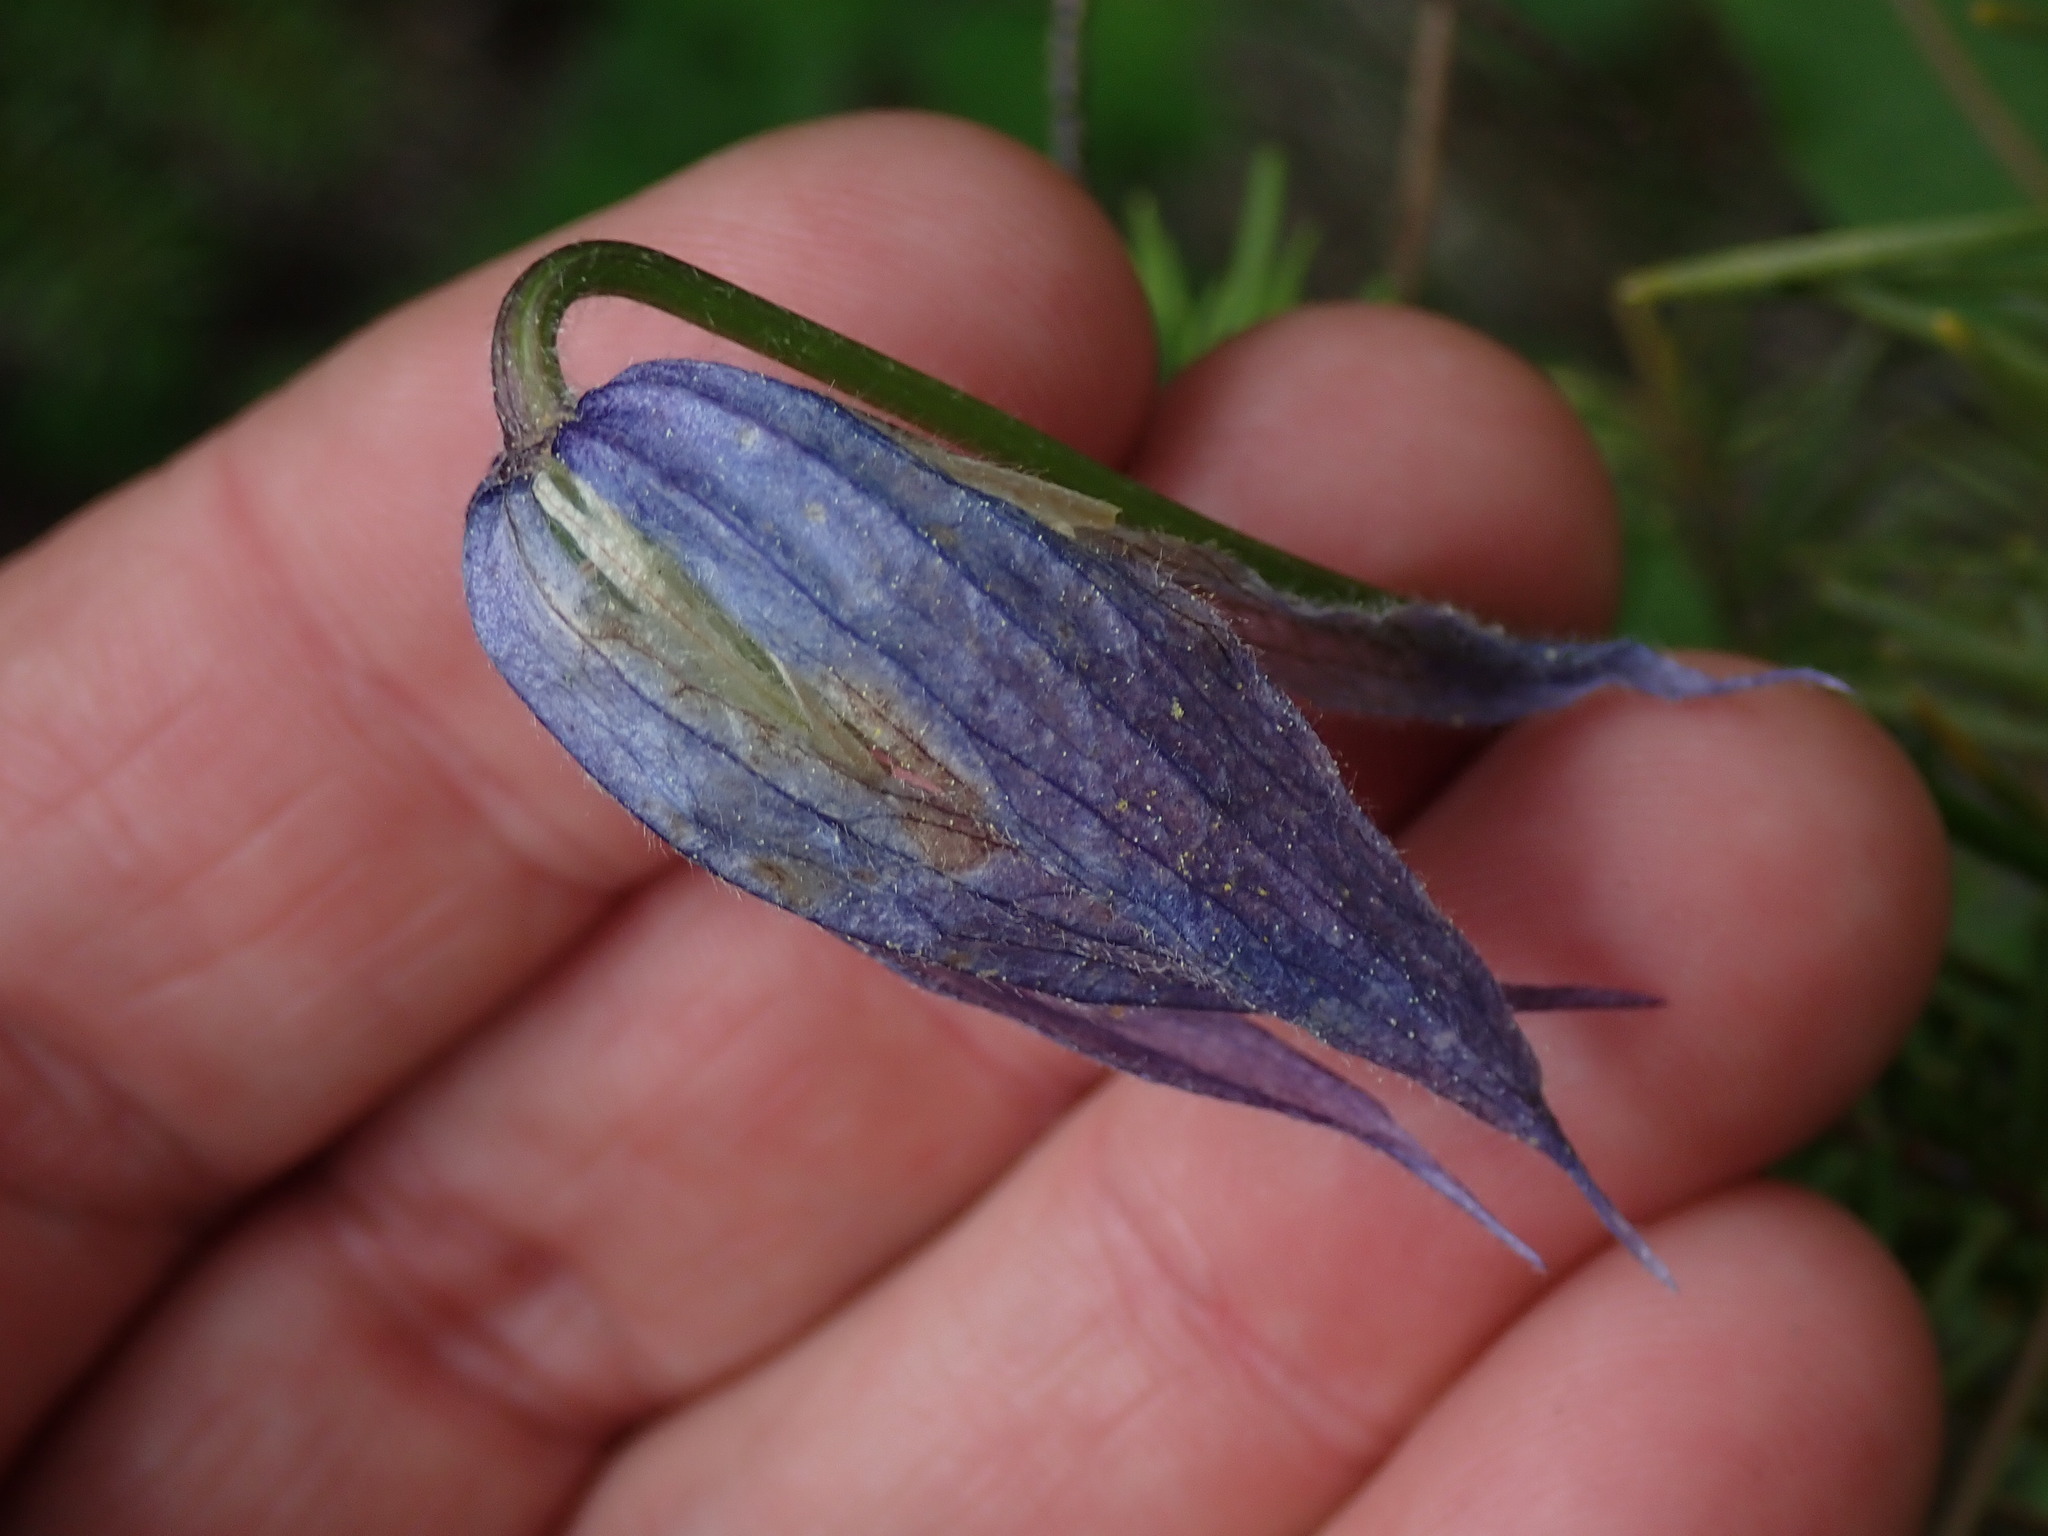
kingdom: Plantae
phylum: Tracheophyta
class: Magnoliopsida
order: Ranunculales
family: Ranunculaceae
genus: Clematis
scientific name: Clematis occidentalis
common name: Purple clematis
